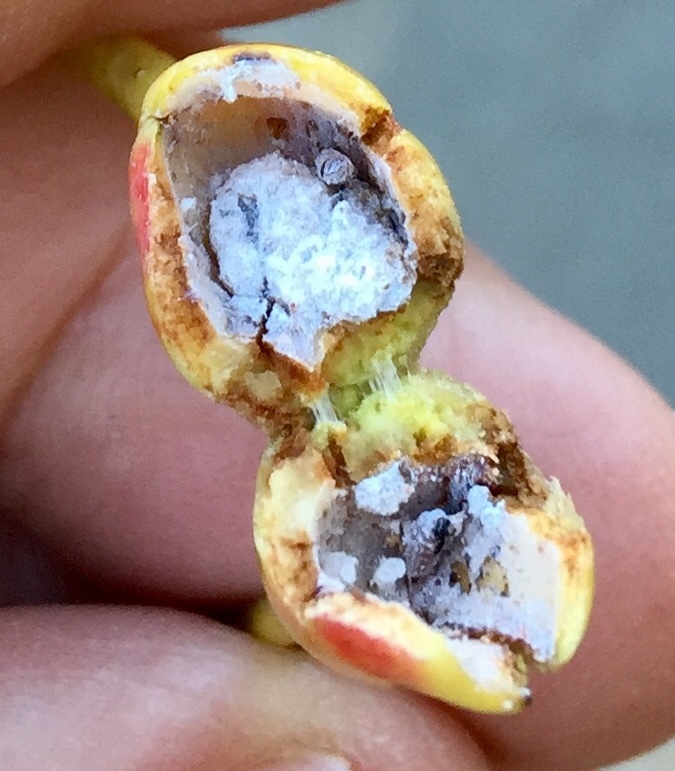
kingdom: Animalia
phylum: Arthropoda
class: Insecta
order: Hemiptera
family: Aphididae
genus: Pemphigus
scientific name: Pemphigus populitransversus
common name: Poplar petiolegall aphid
